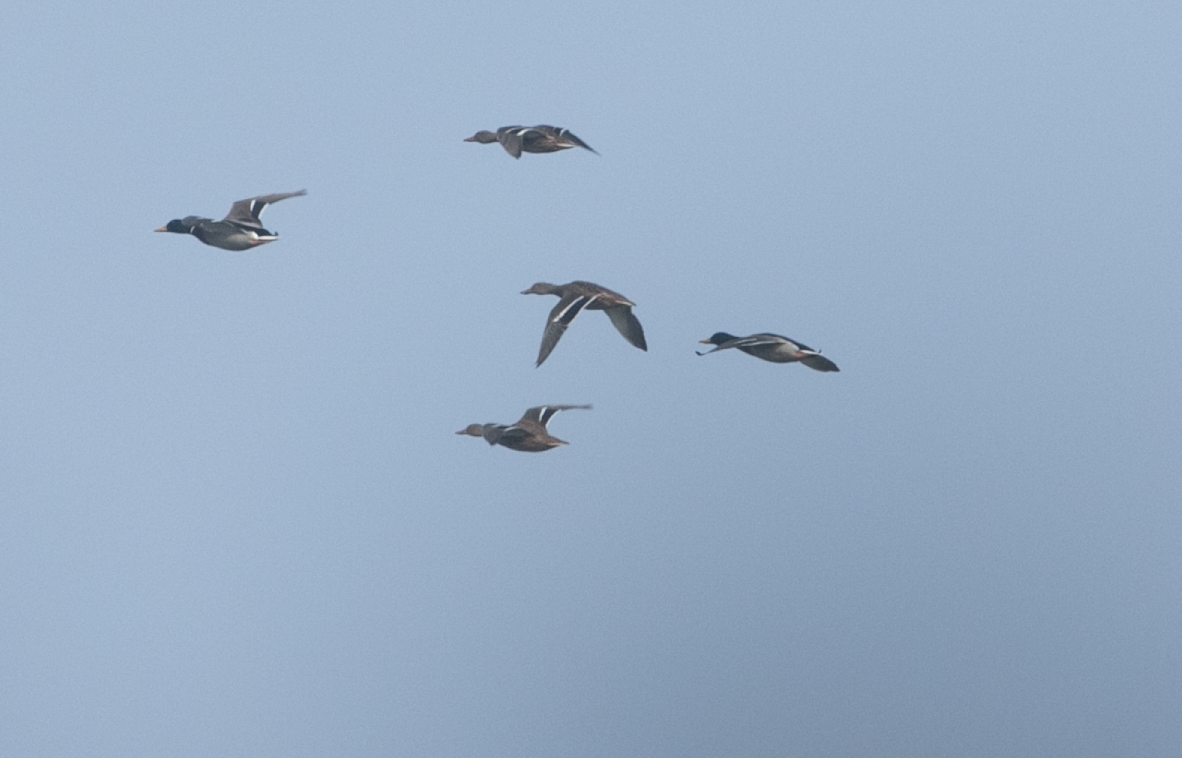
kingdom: Animalia
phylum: Chordata
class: Aves
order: Anseriformes
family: Anatidae
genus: Anas
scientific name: Anas platyrhynchos
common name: Mallard
